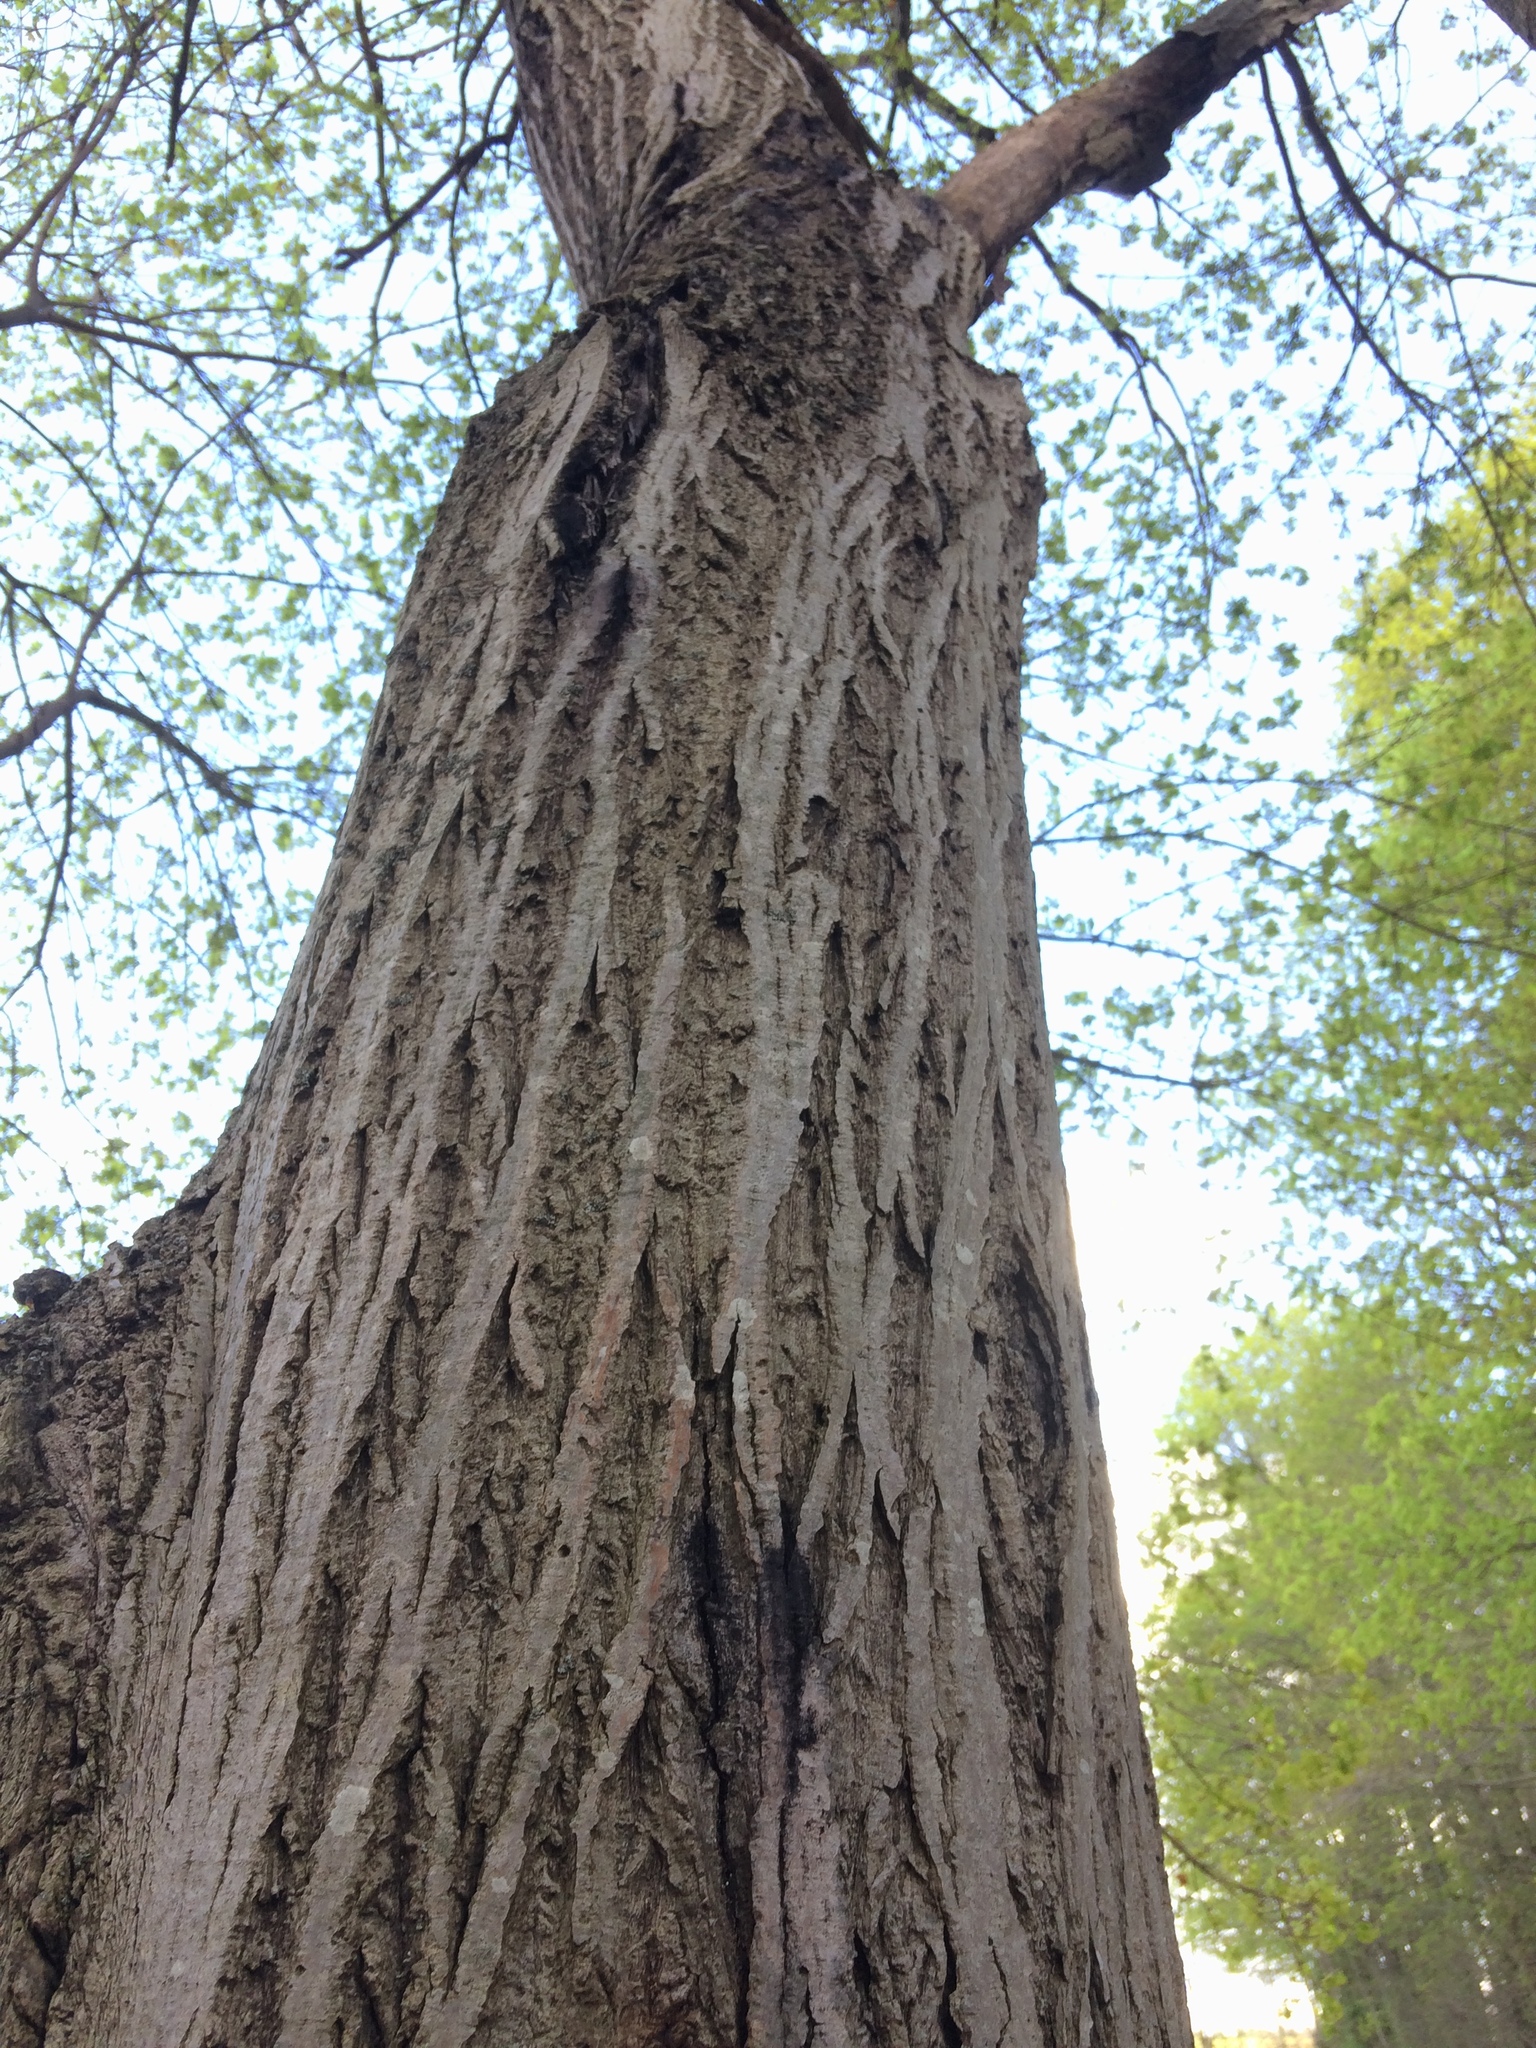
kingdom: Plantae
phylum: Tracheophyta
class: Magnoliopsida
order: Fagales
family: Juglandaceae
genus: Juglans
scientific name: Juglans cinerea
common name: Butternut
